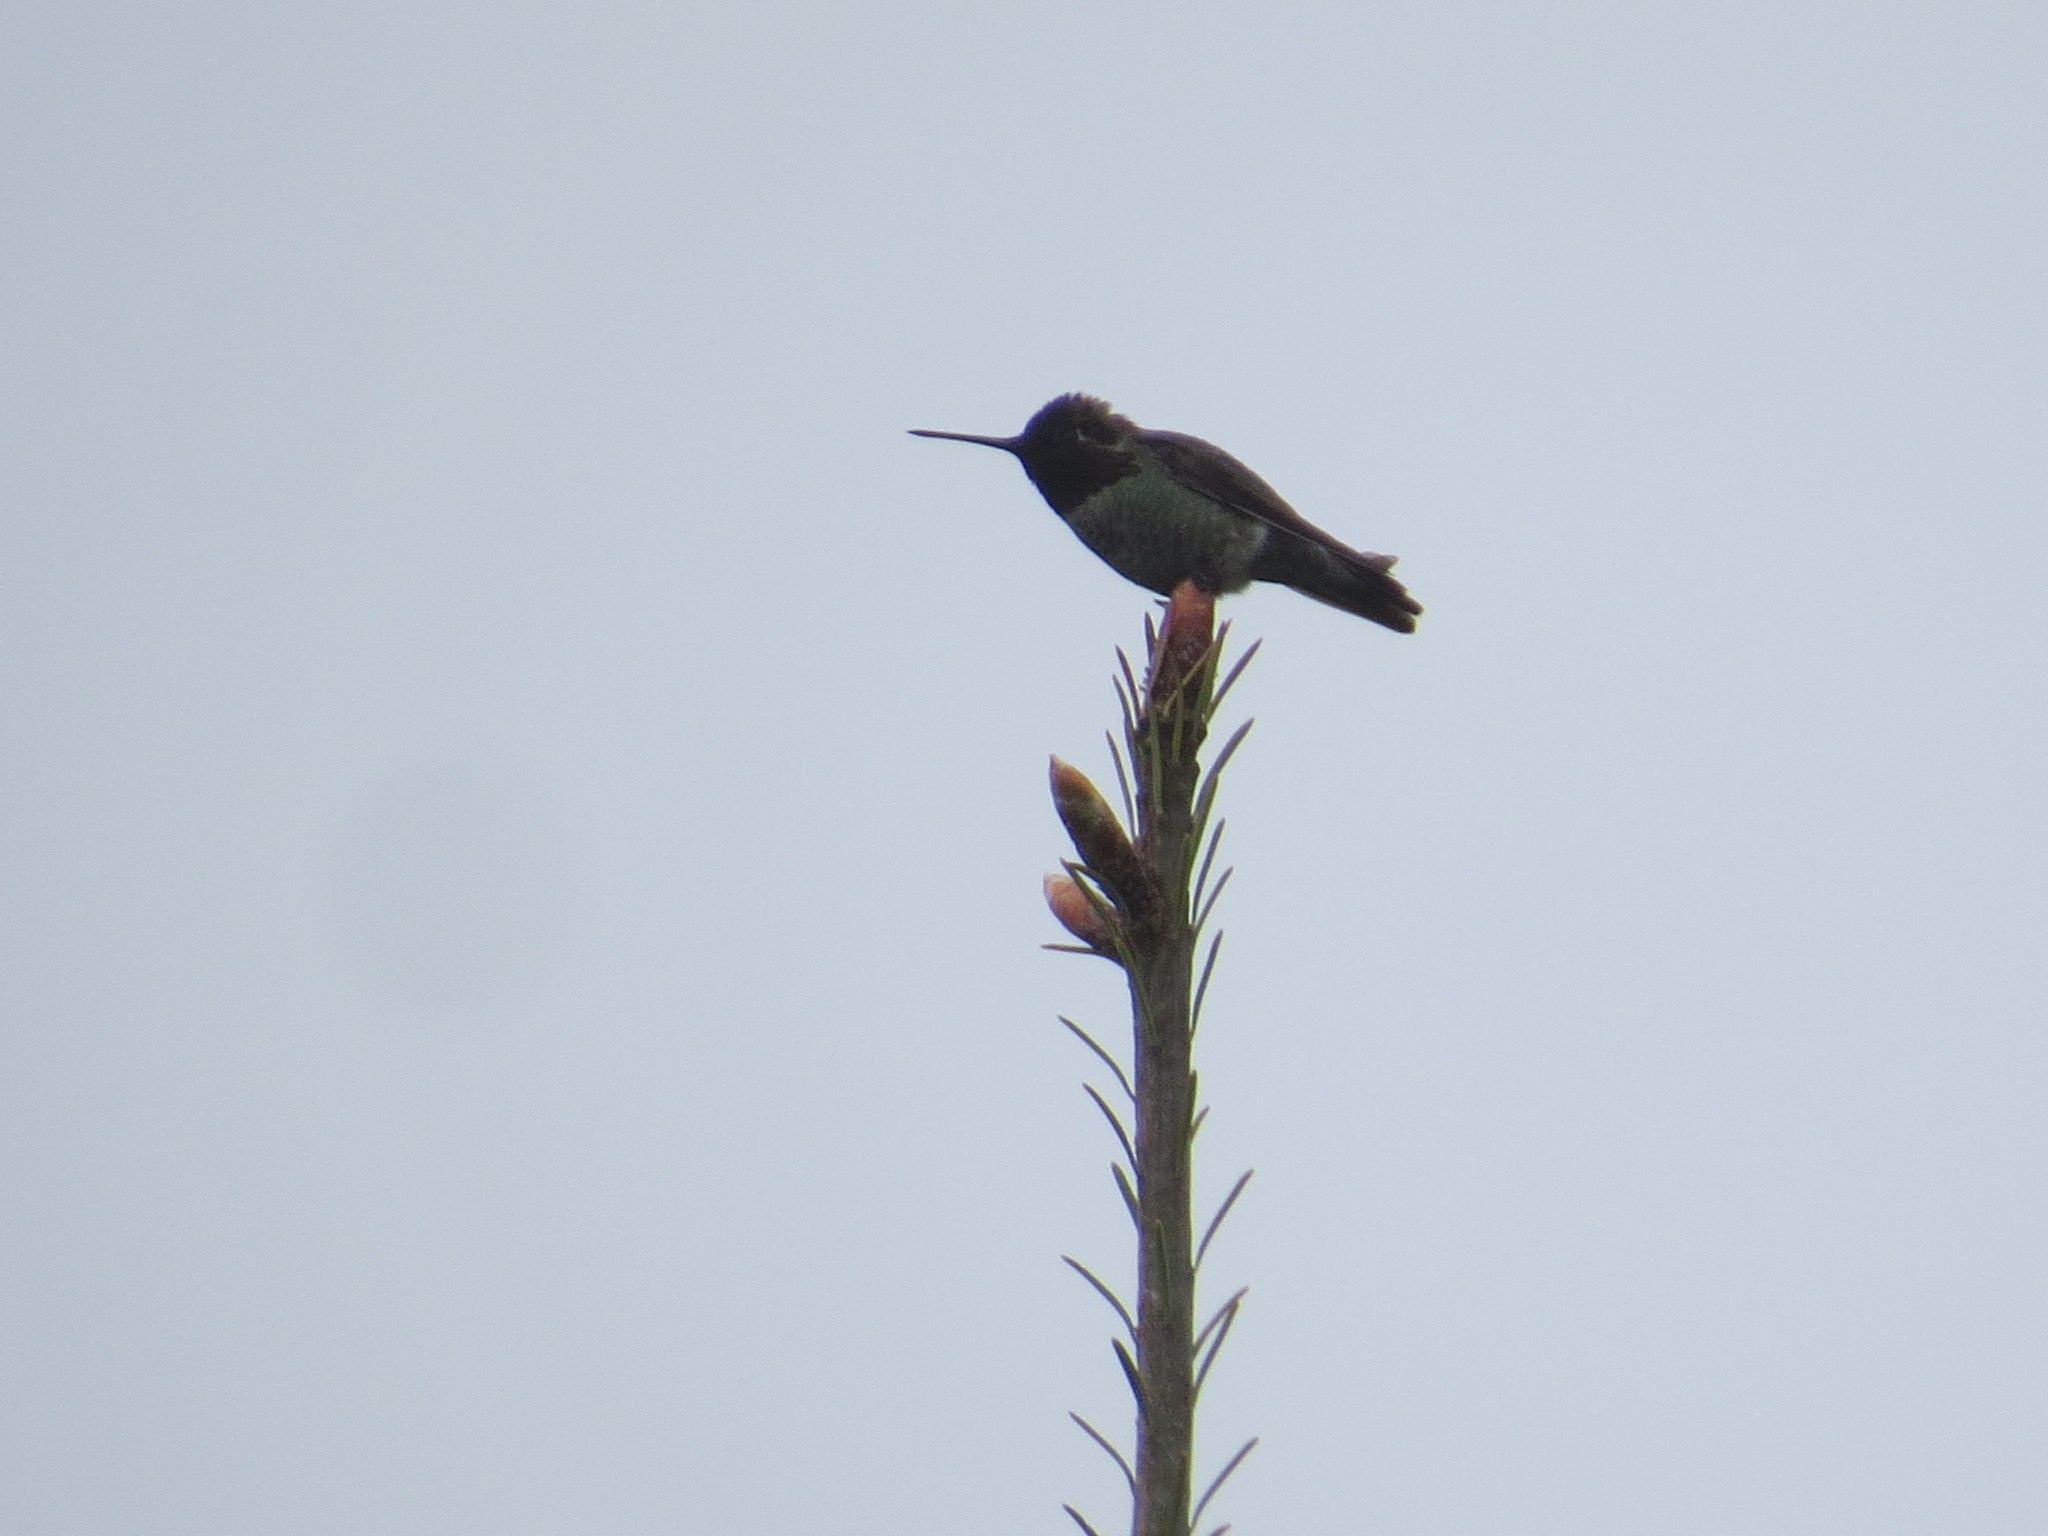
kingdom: Animalia
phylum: Chordata
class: Aves
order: Apodiformes
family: Trochilidae
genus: Calypte
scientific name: Calypte anna
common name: Anna's hummingbird
